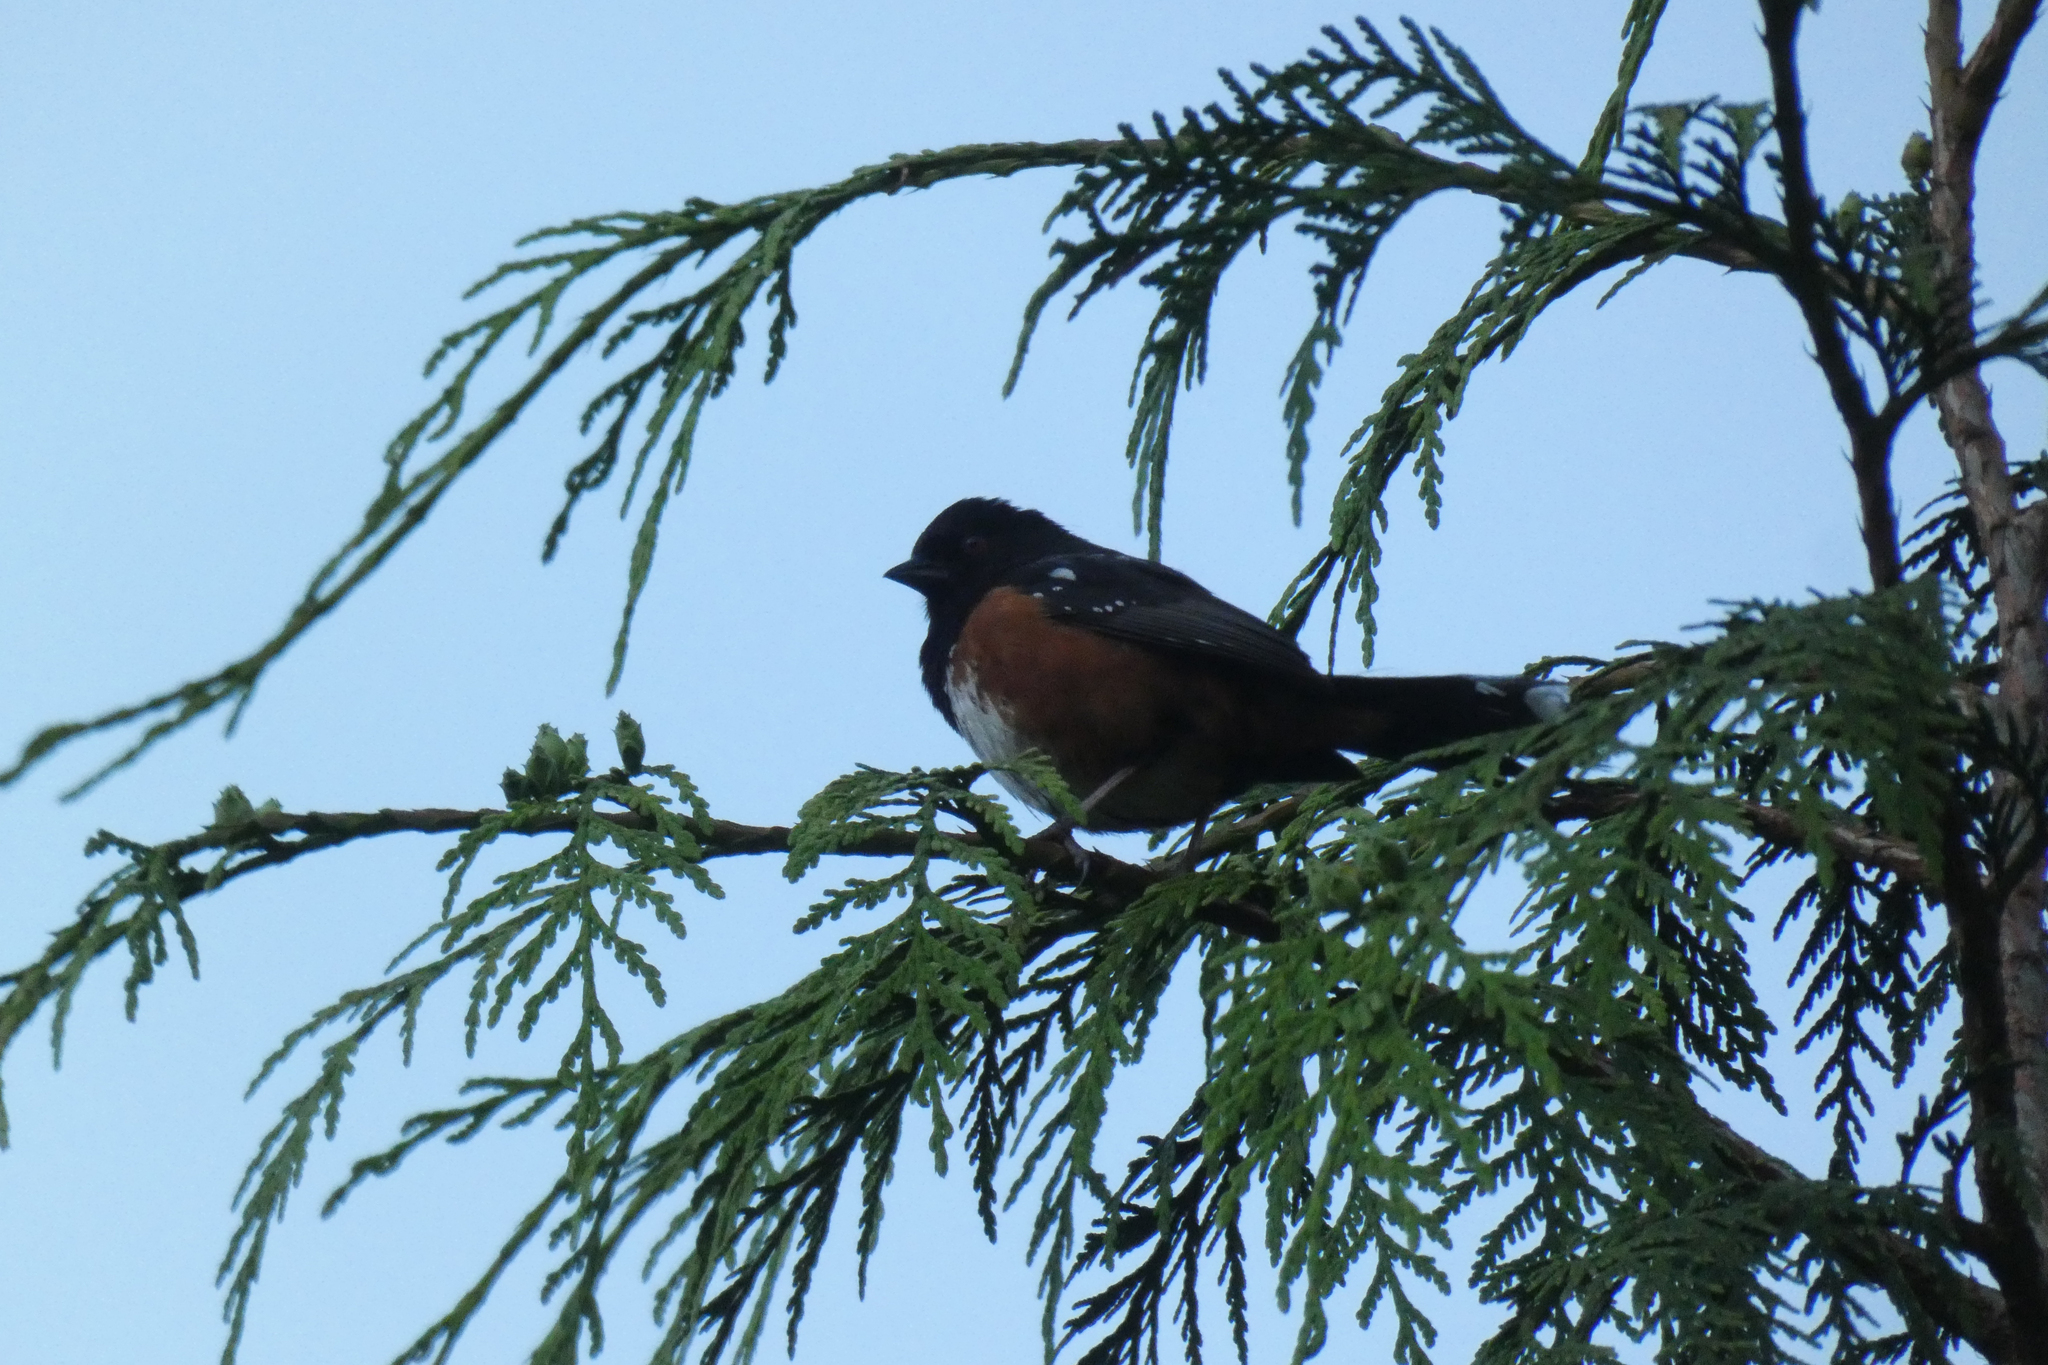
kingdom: Animalia
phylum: Chordata
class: Aves
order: Passeriformes
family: Passerellidae
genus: Pipilo
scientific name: Pipilo maculatus
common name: Spotted towhee
